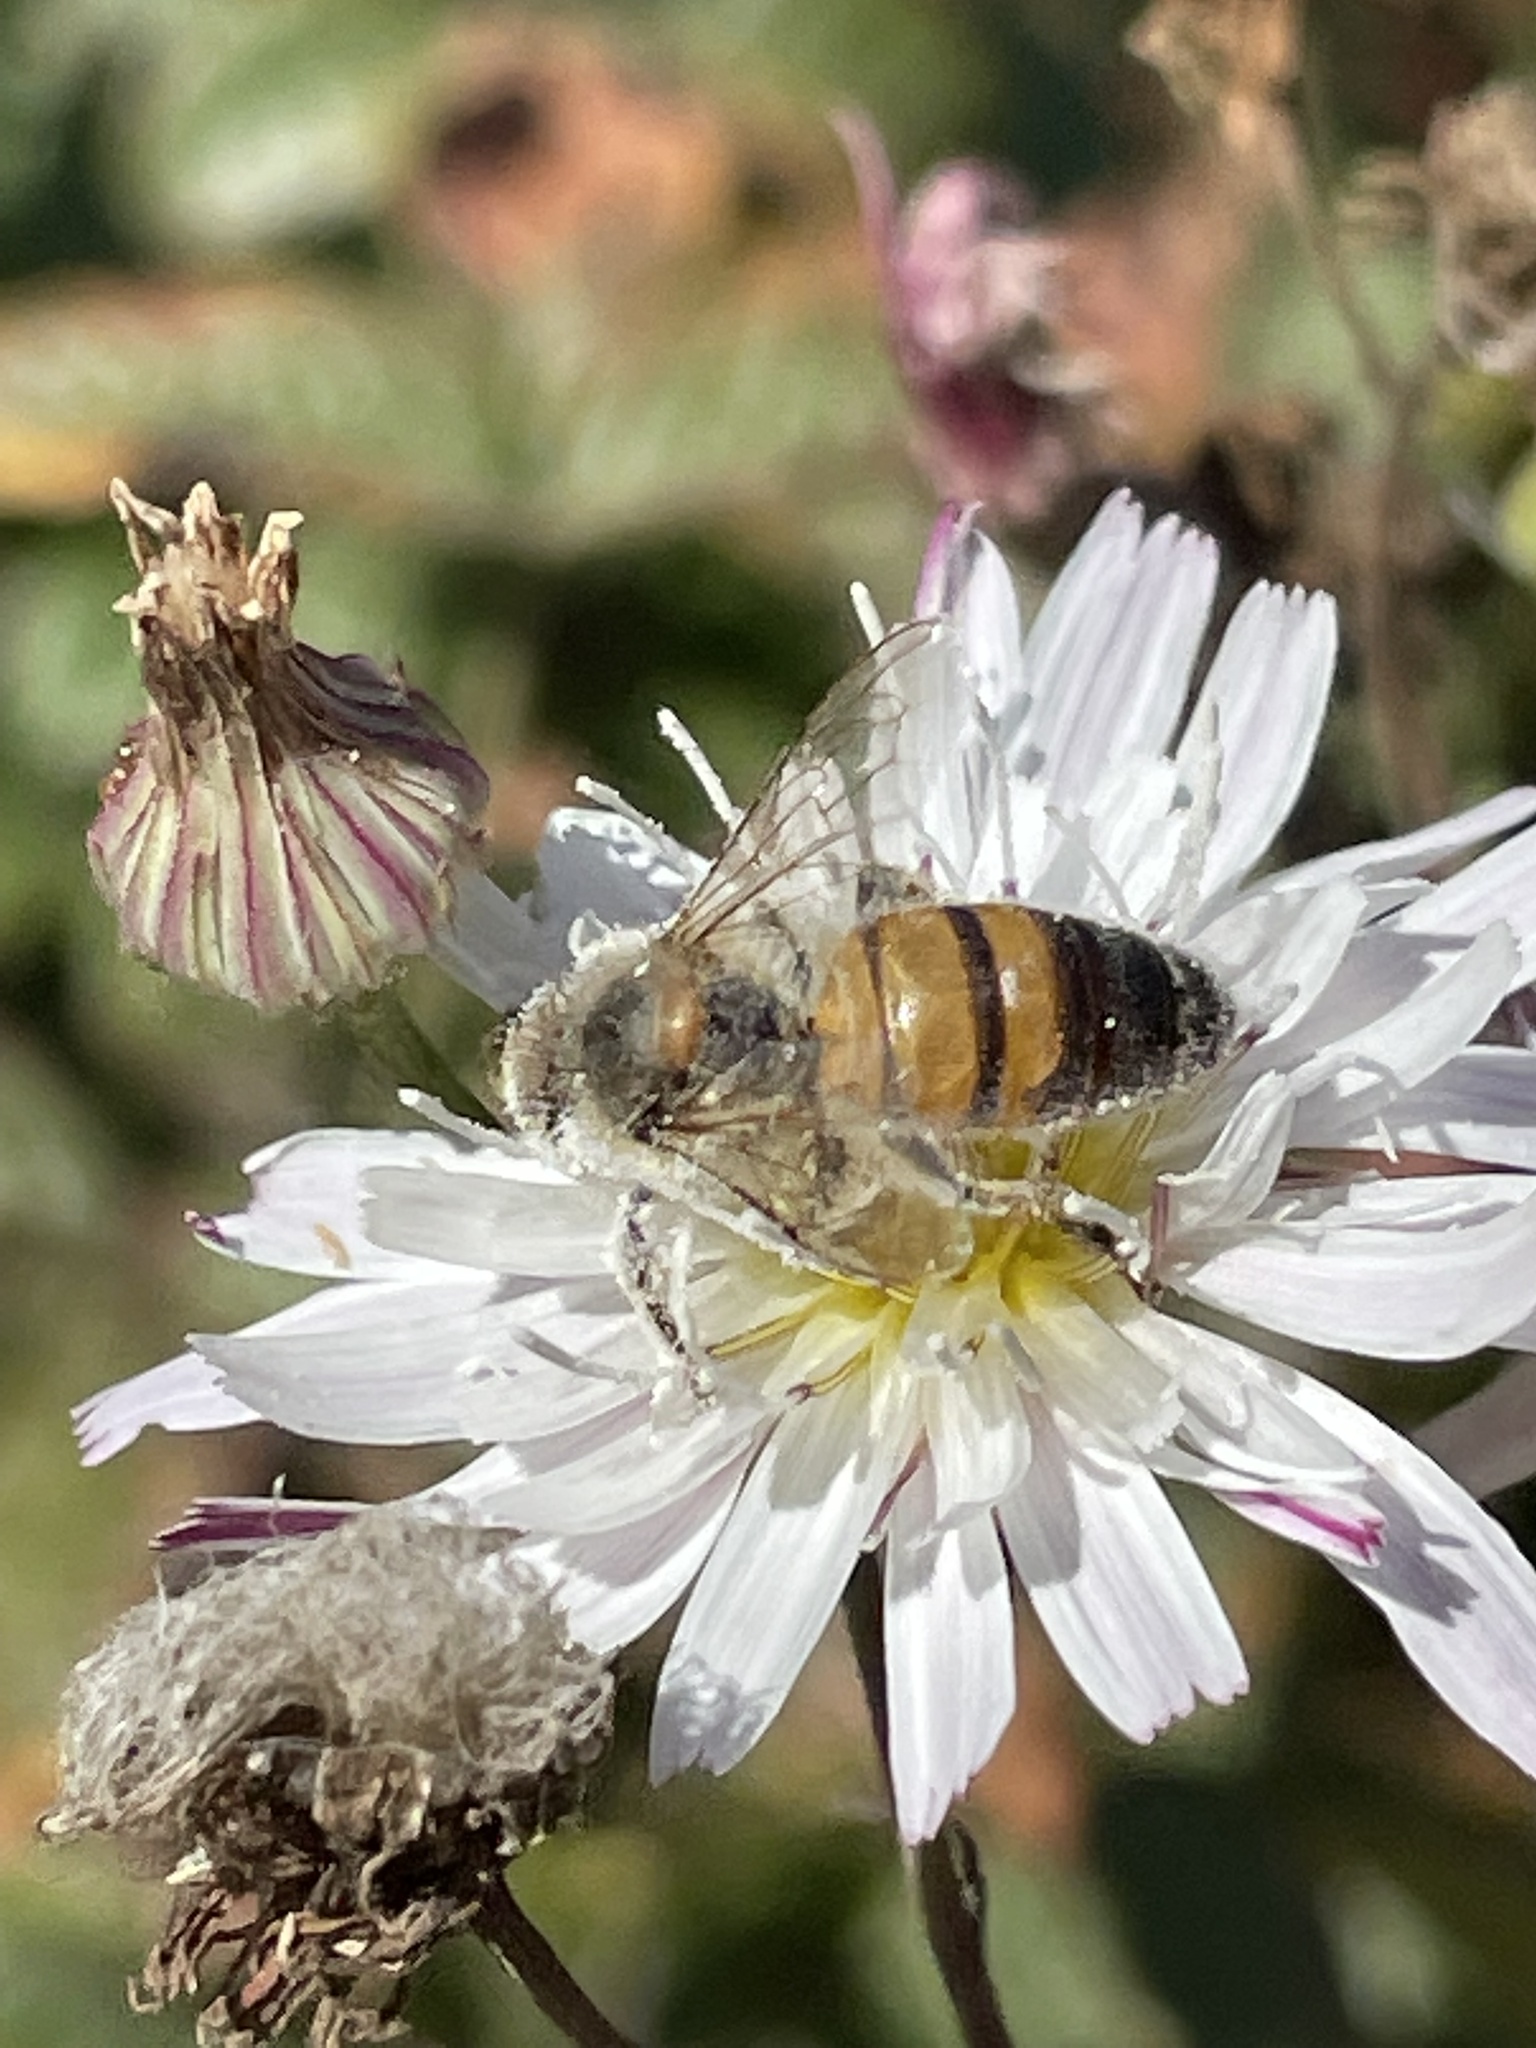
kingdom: Animalia
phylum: Arthropoda
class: Insecta
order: Hymenoptera
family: Apidae
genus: Apis
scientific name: Apis mellifera
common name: Honey bee
